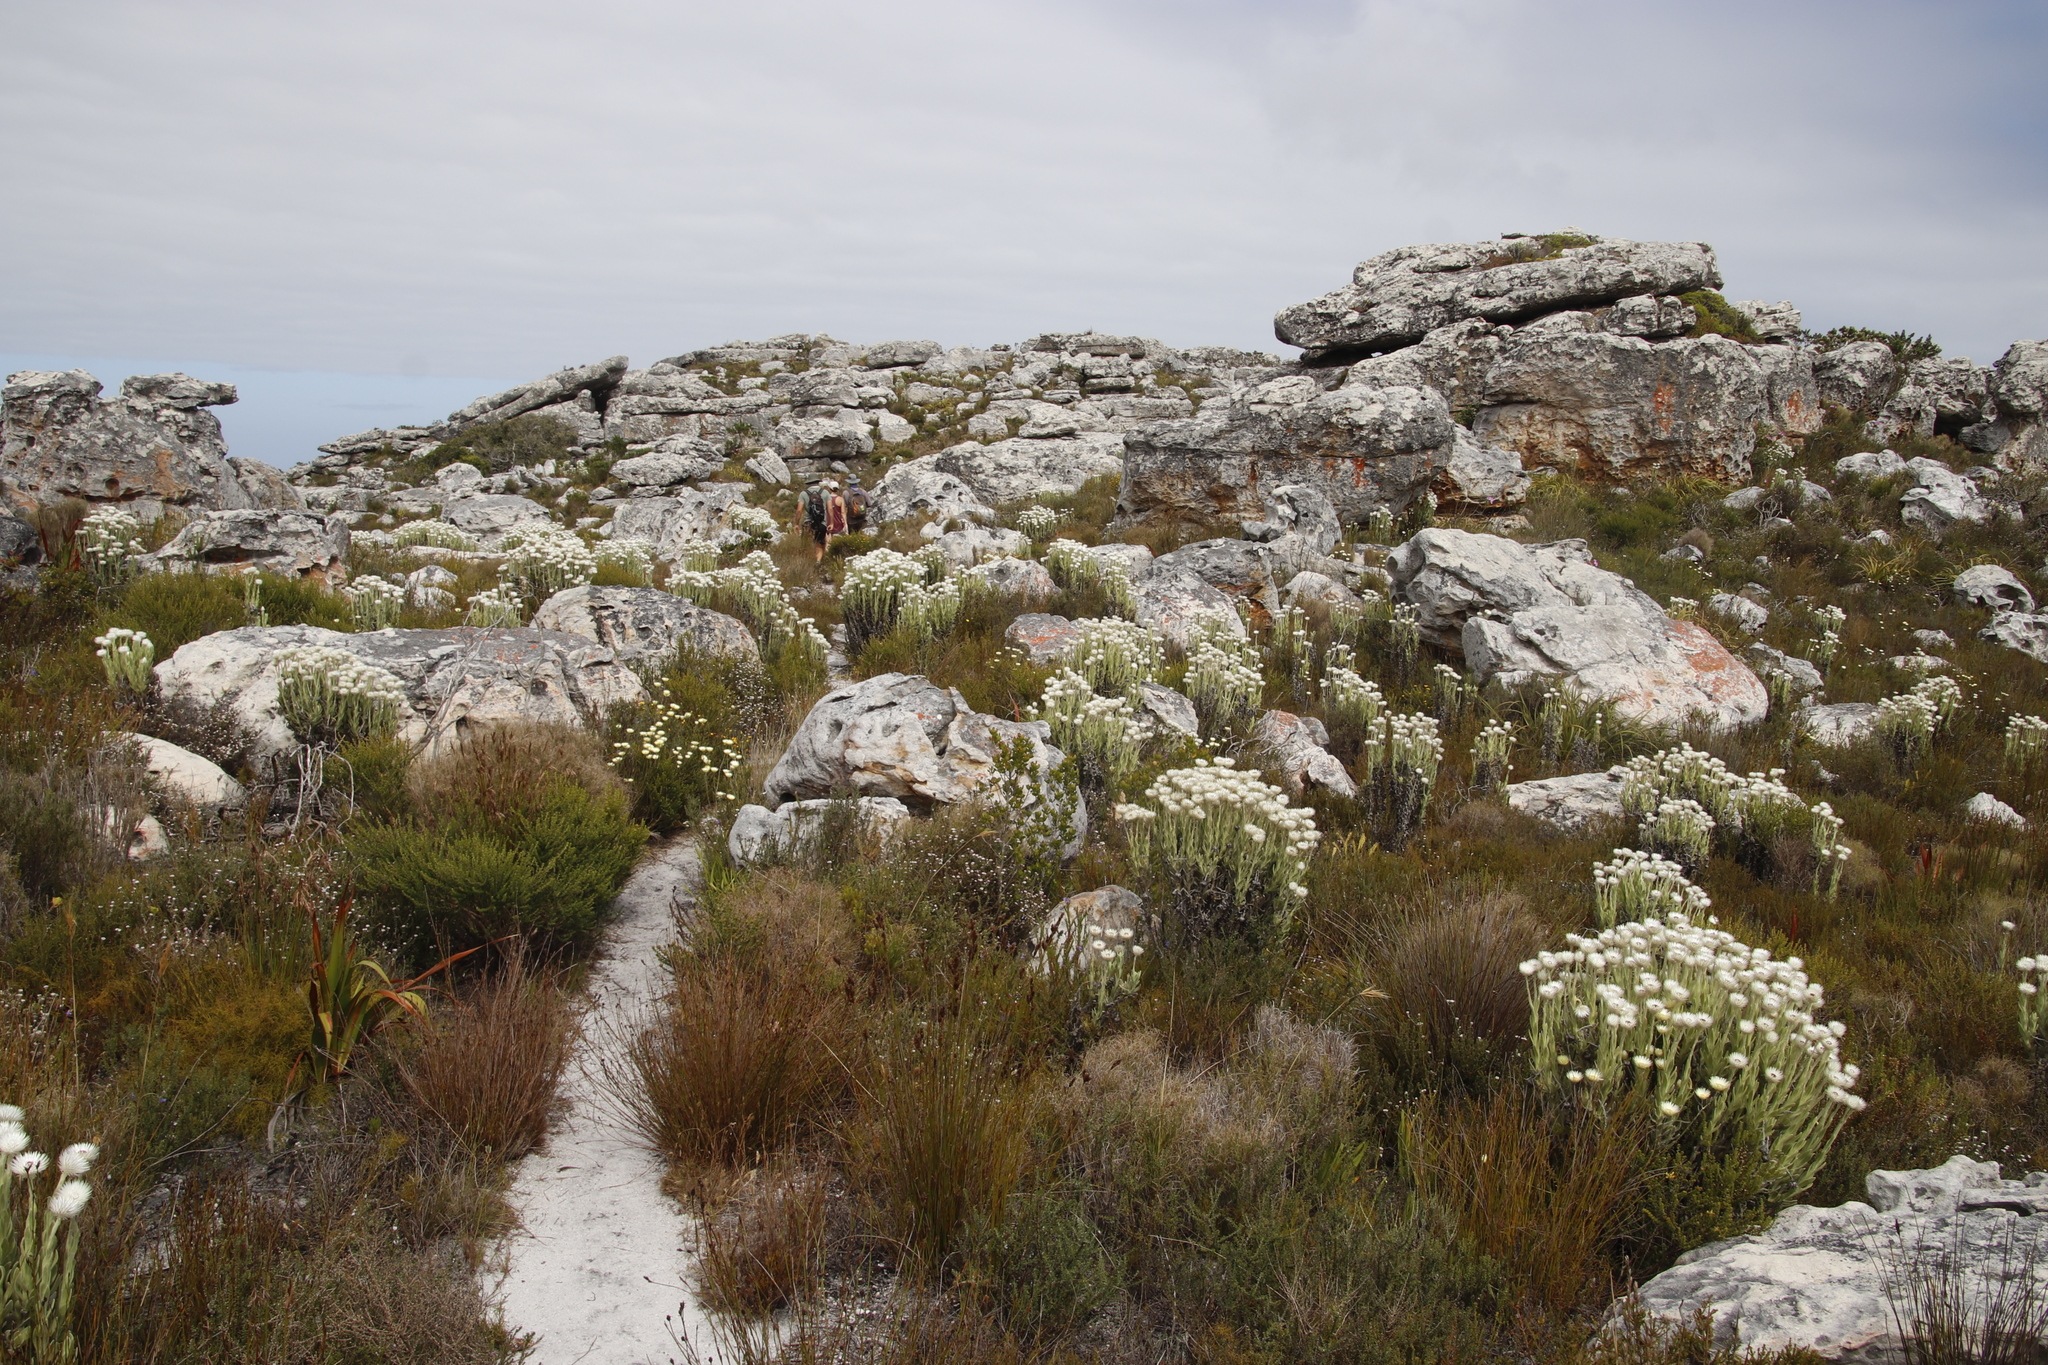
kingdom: Plantae
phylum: Tracheophyta
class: Magnoliopsida
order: Asterales
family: Asteraceae
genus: Syncarpha
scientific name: Syncarpha vestita
